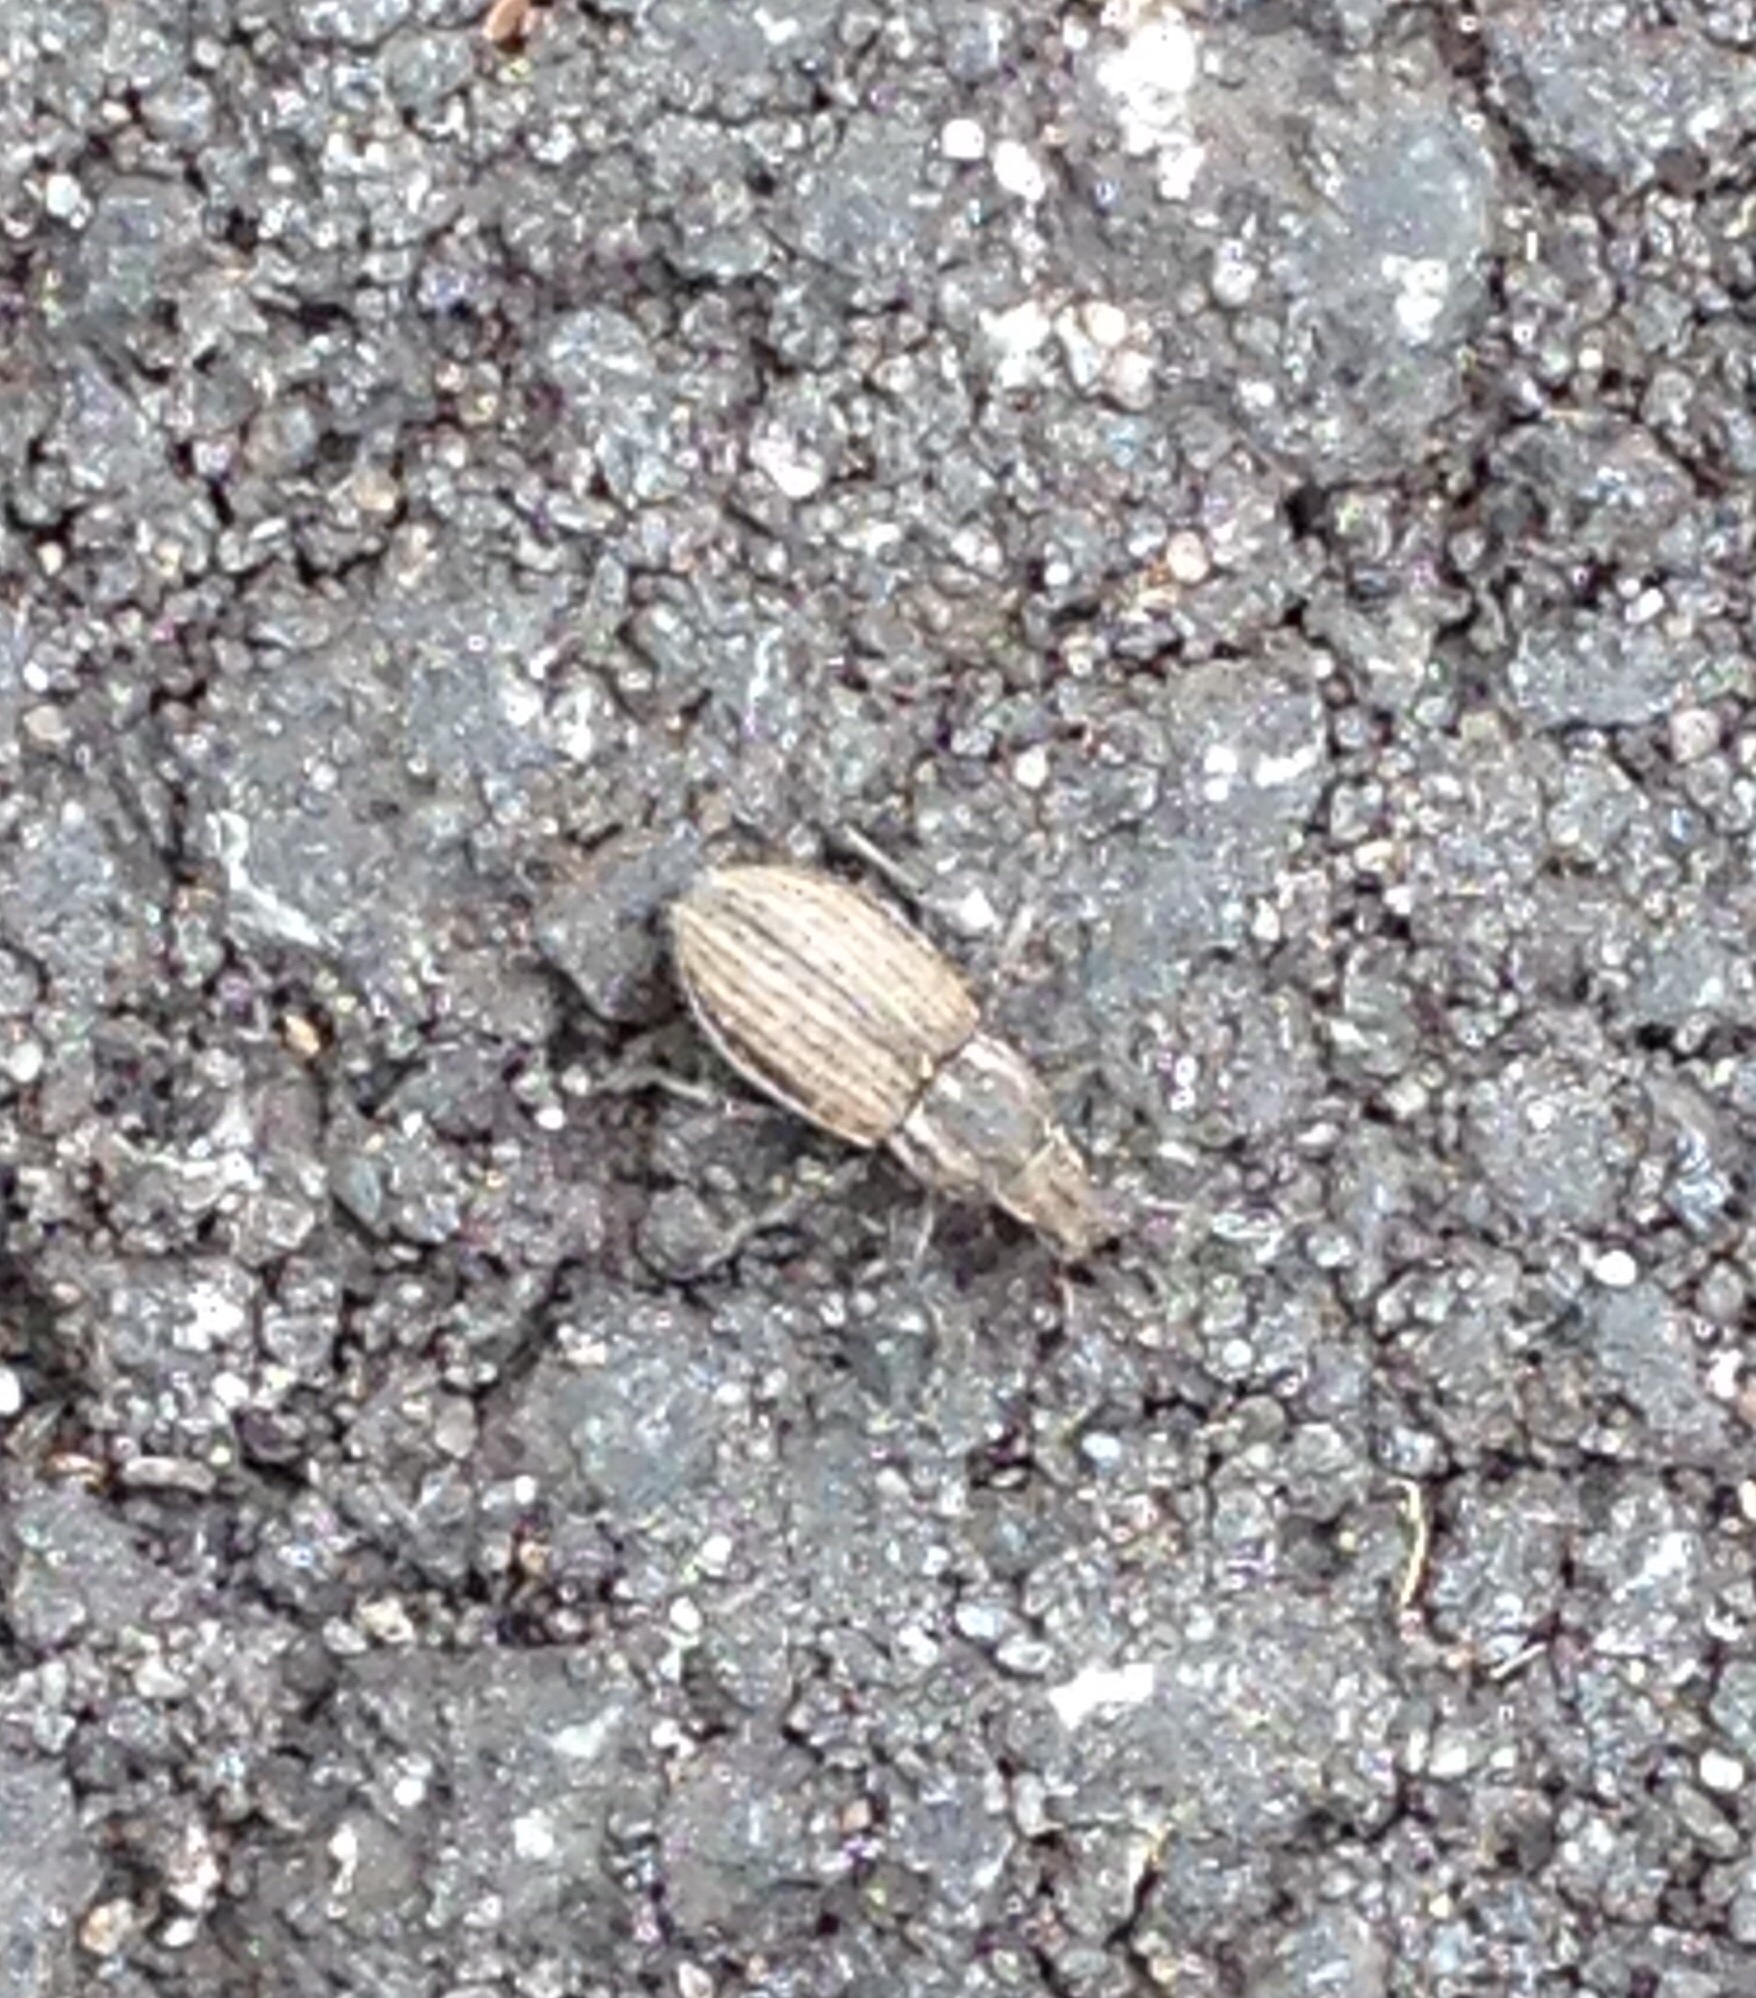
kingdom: Animalia
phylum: Arthropoda
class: Insecta
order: Coleoptera
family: Curculionidae
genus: Naupactus
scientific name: Naupactus leucoloma
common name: Whitefringed beetle
